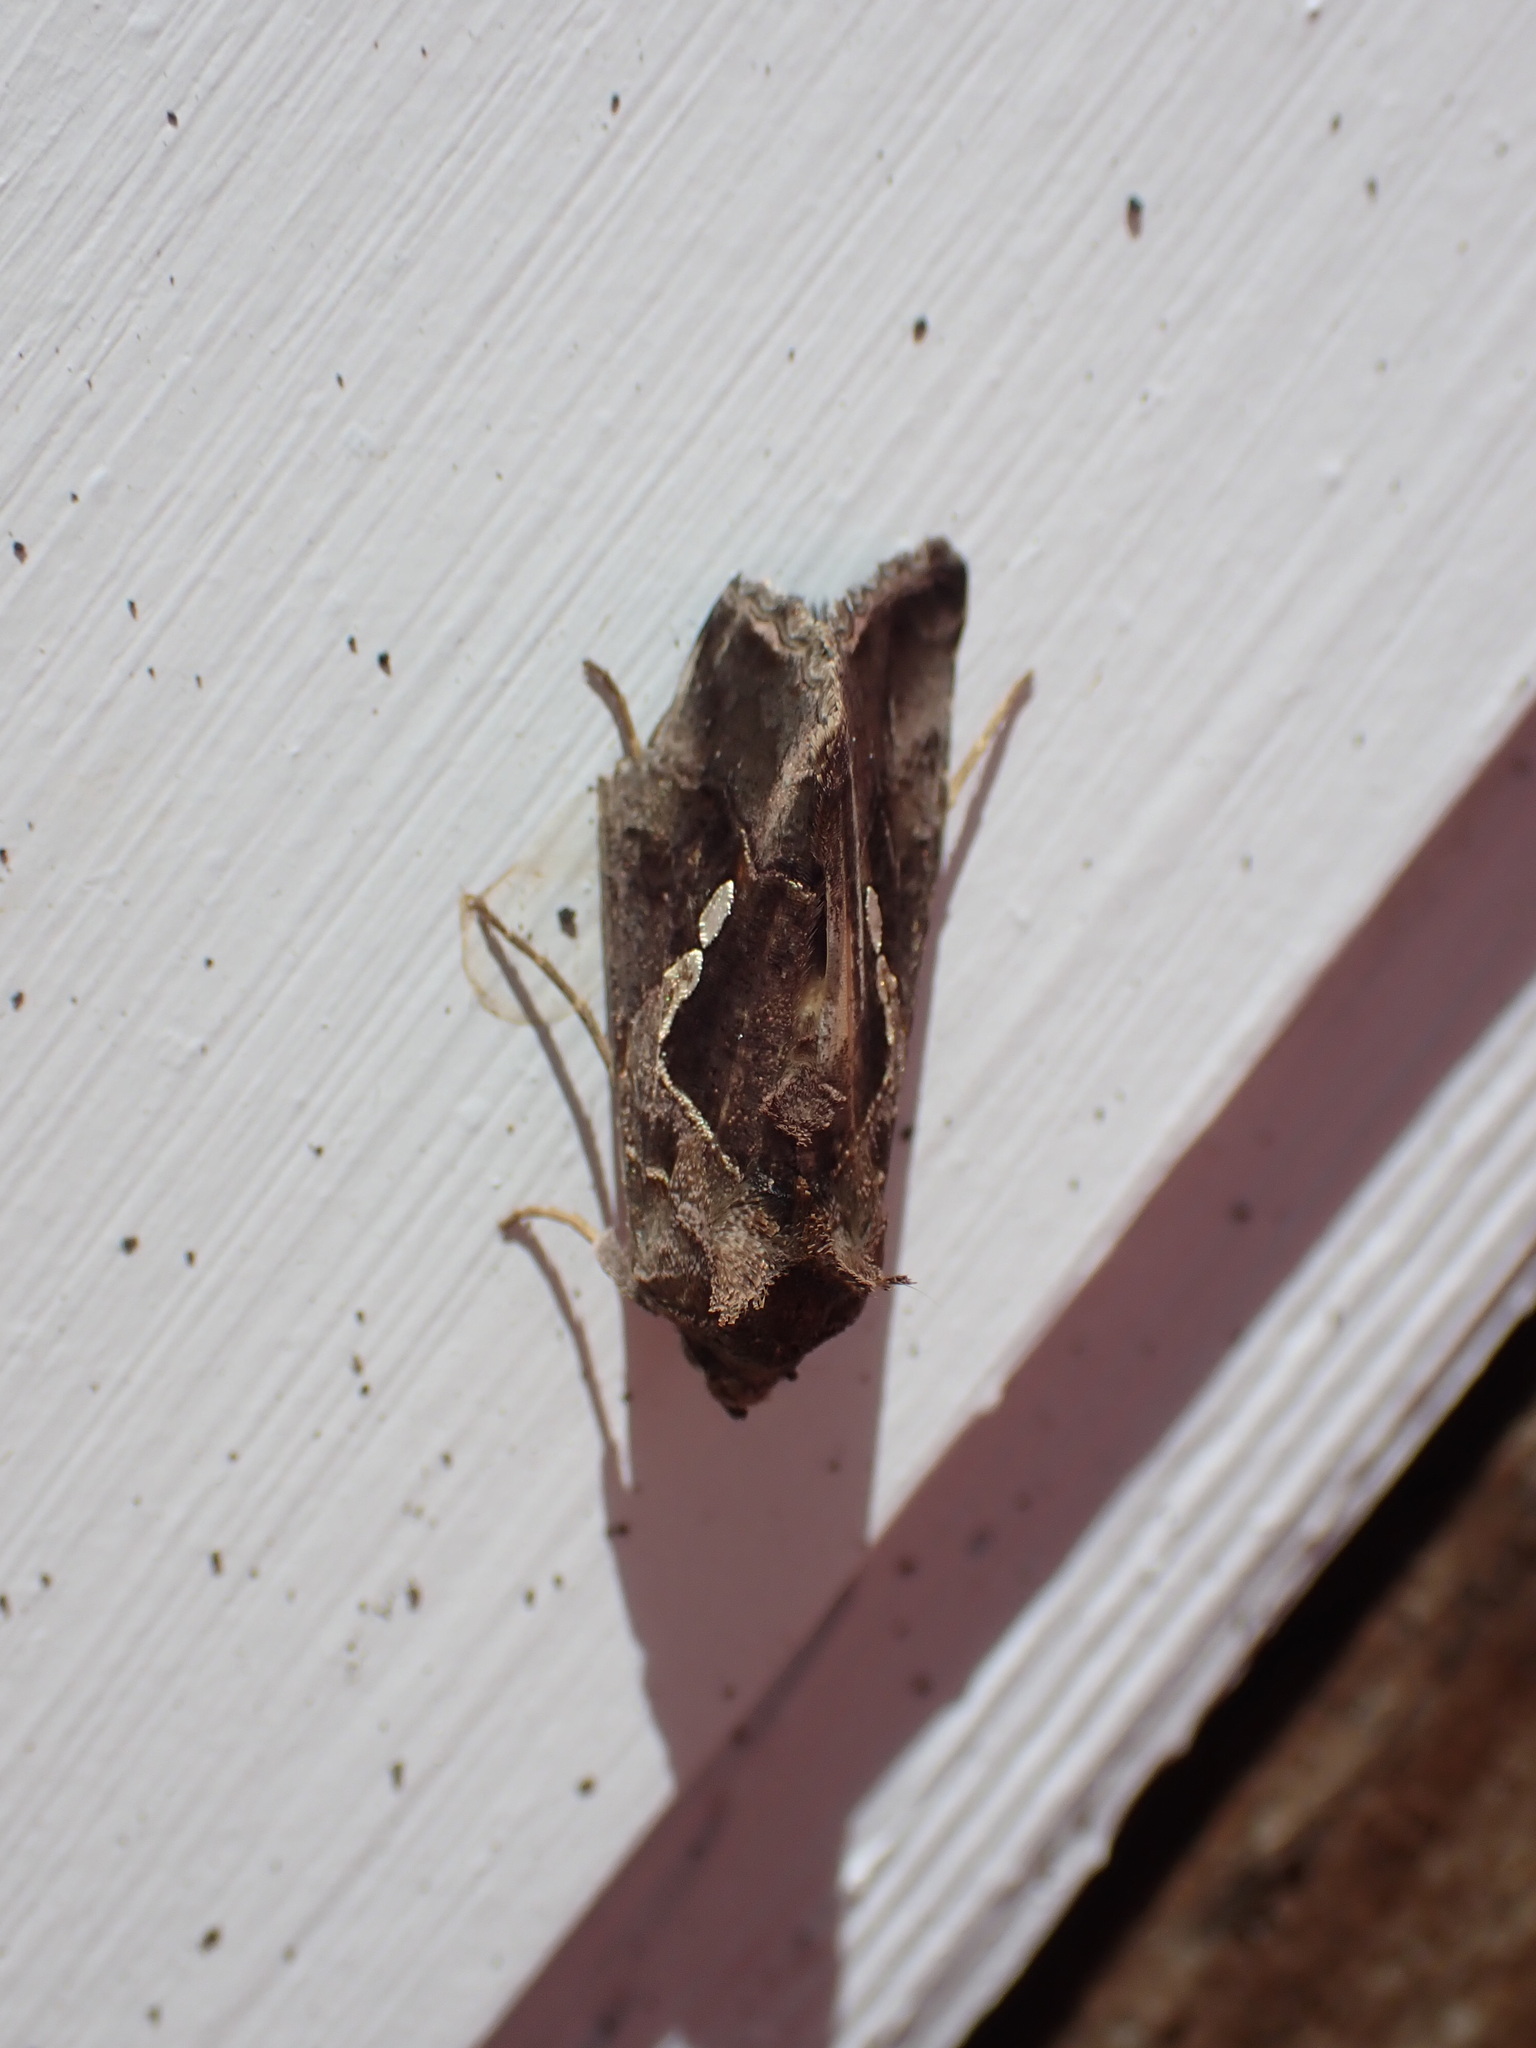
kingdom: Animalia
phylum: Arthropoda
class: Insecta
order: Lepidoptera
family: Noctuidae
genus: Chrysodeixis
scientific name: Chrysodeixis eriosoma
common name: Green garden looper
